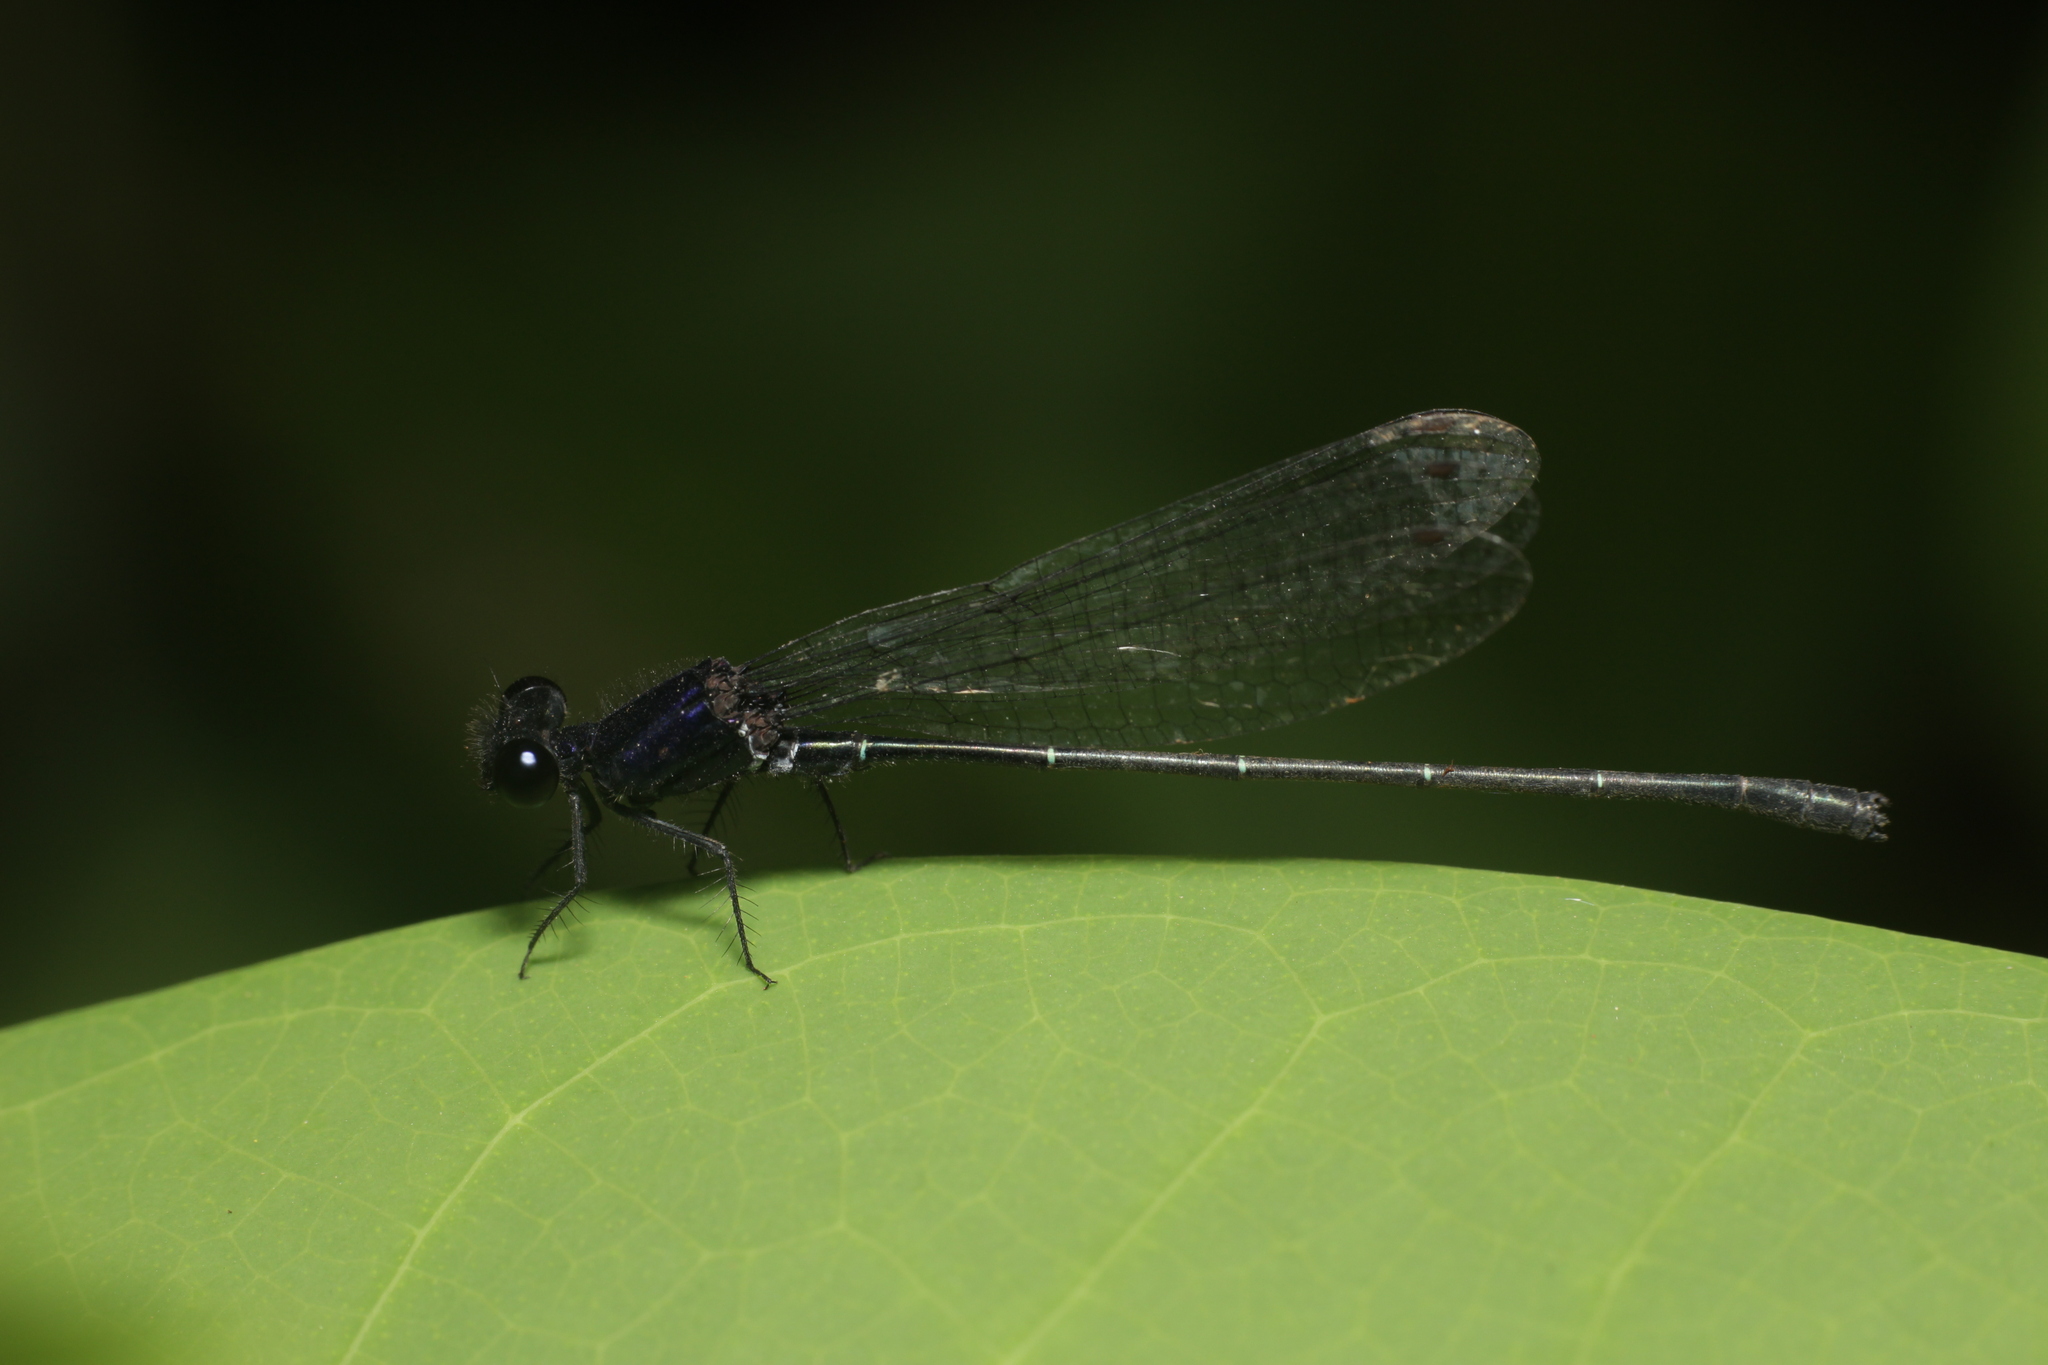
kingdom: Animalia
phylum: Arthropoda
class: Insecta
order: Odonata
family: Platycnemididae
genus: Onychargia
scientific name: Onychargia atrocyana
